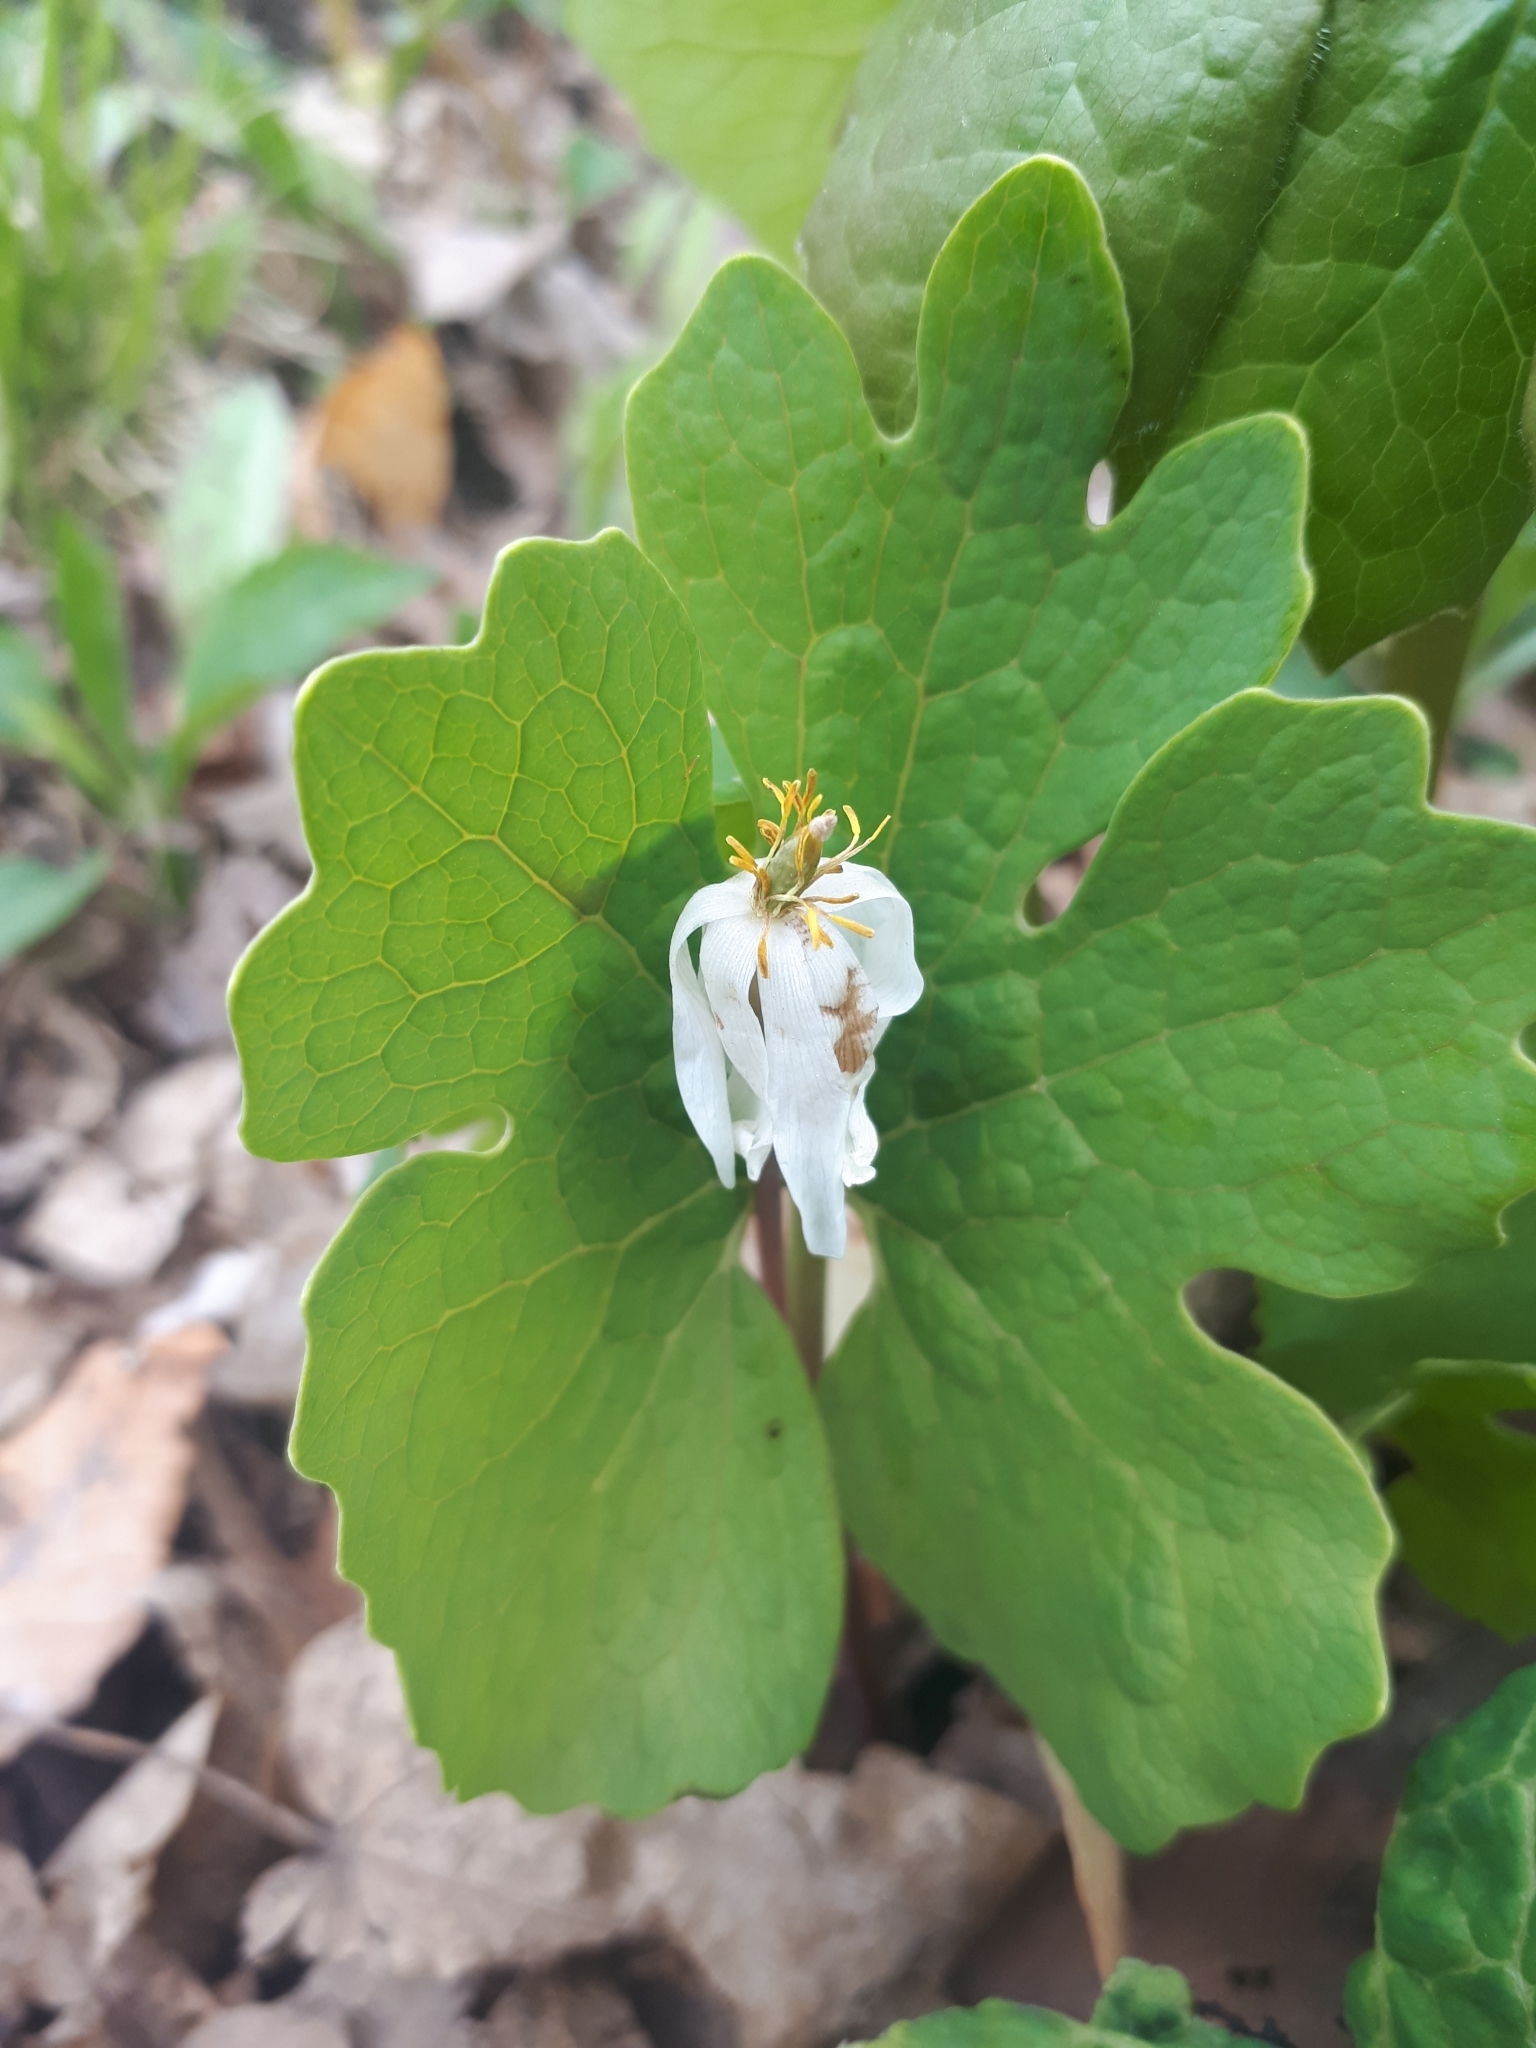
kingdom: Plantae
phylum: Tracheophyta
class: Magnoliopsida
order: Ranunculales
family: Papaveraceae
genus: Sanguinaria
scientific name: Sanguinaria canadensis
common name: Bloodroot
